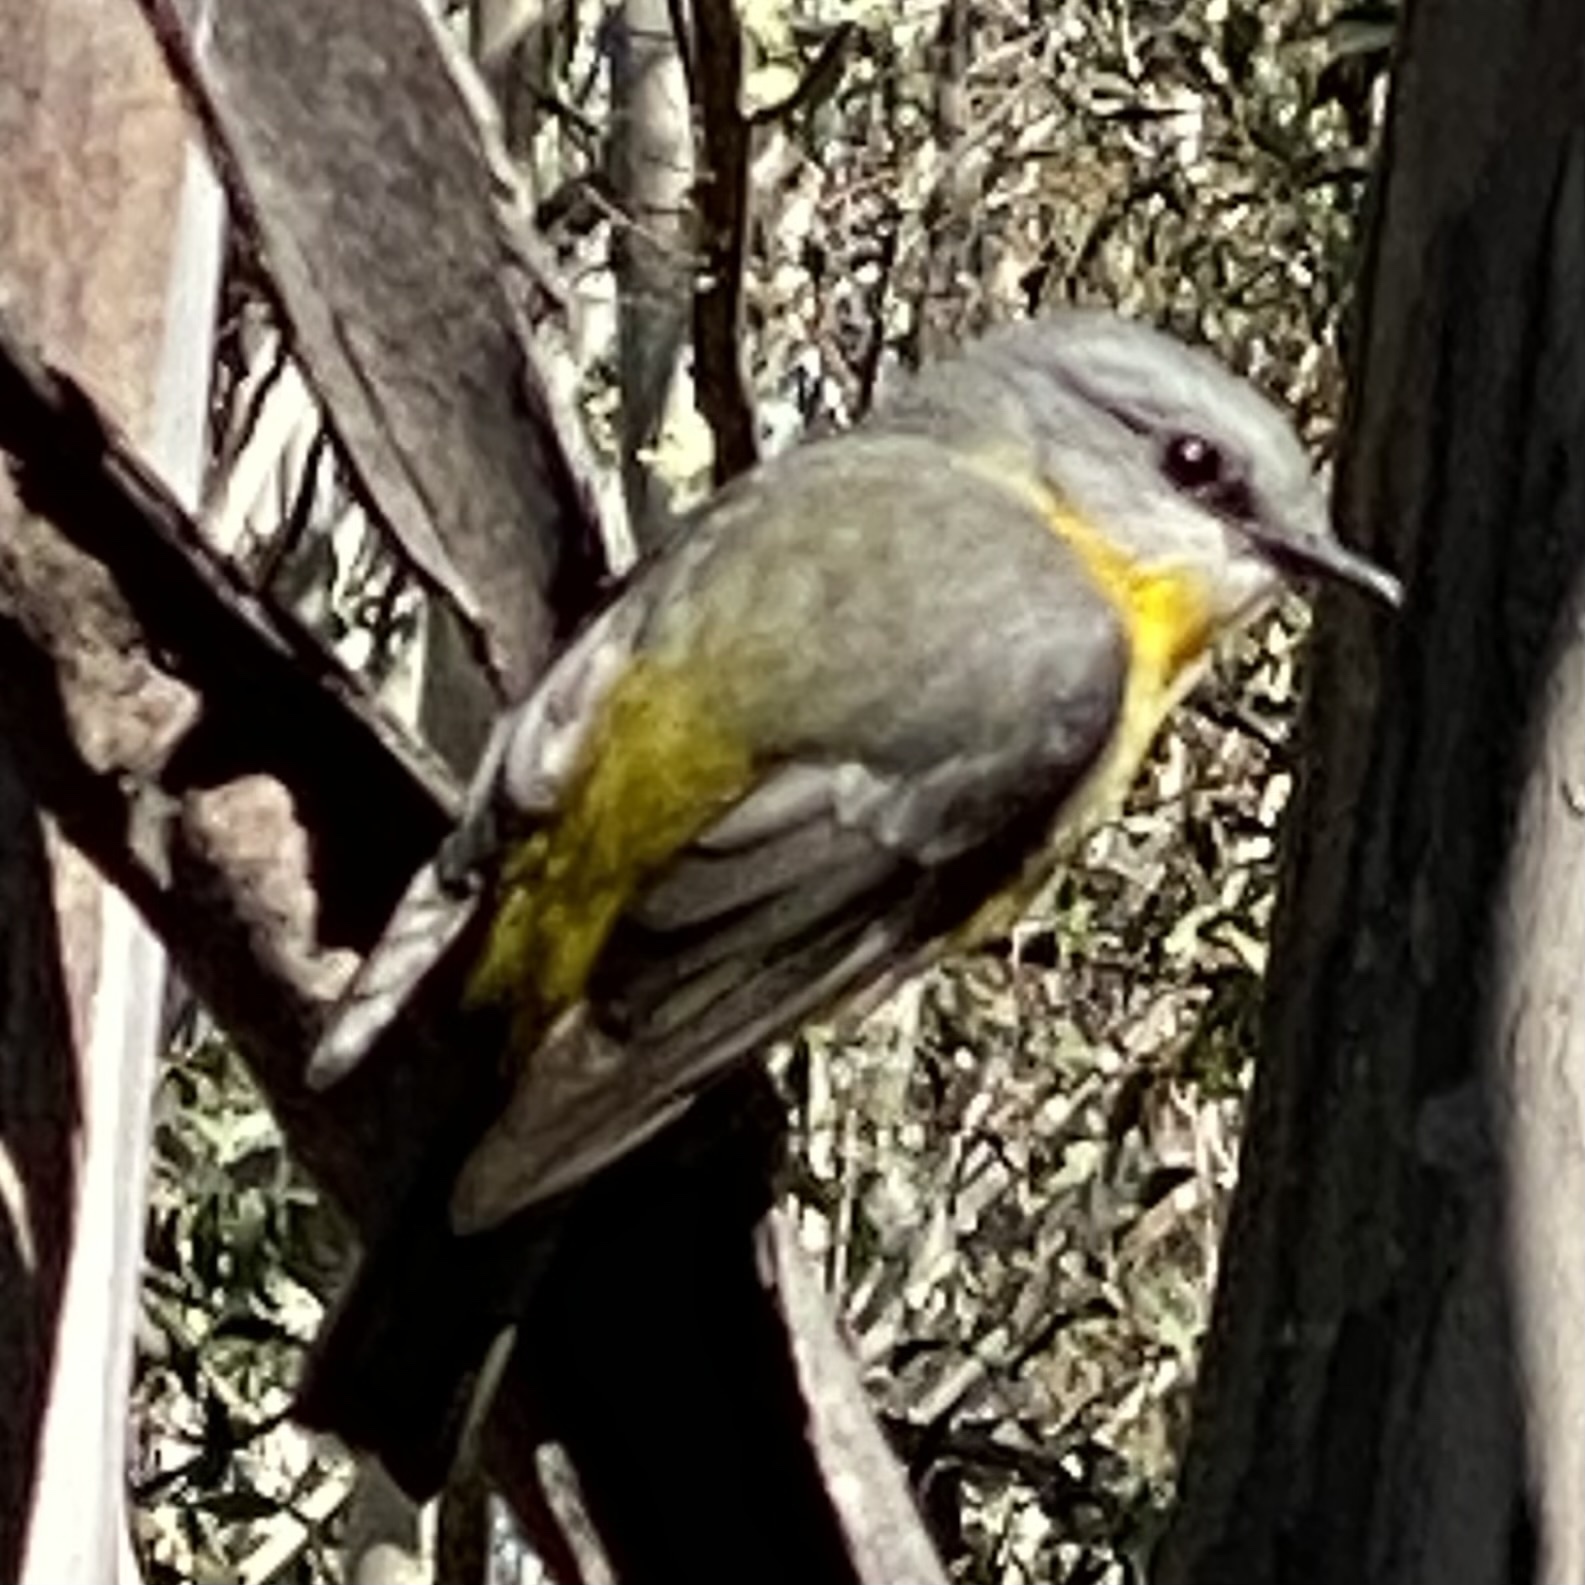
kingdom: Animalia
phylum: Chordata
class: Aves
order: Passeriformes
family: Petroicidae
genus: Eopsaltria
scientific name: Eopsaltria australis
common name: Eastern yellow robin
